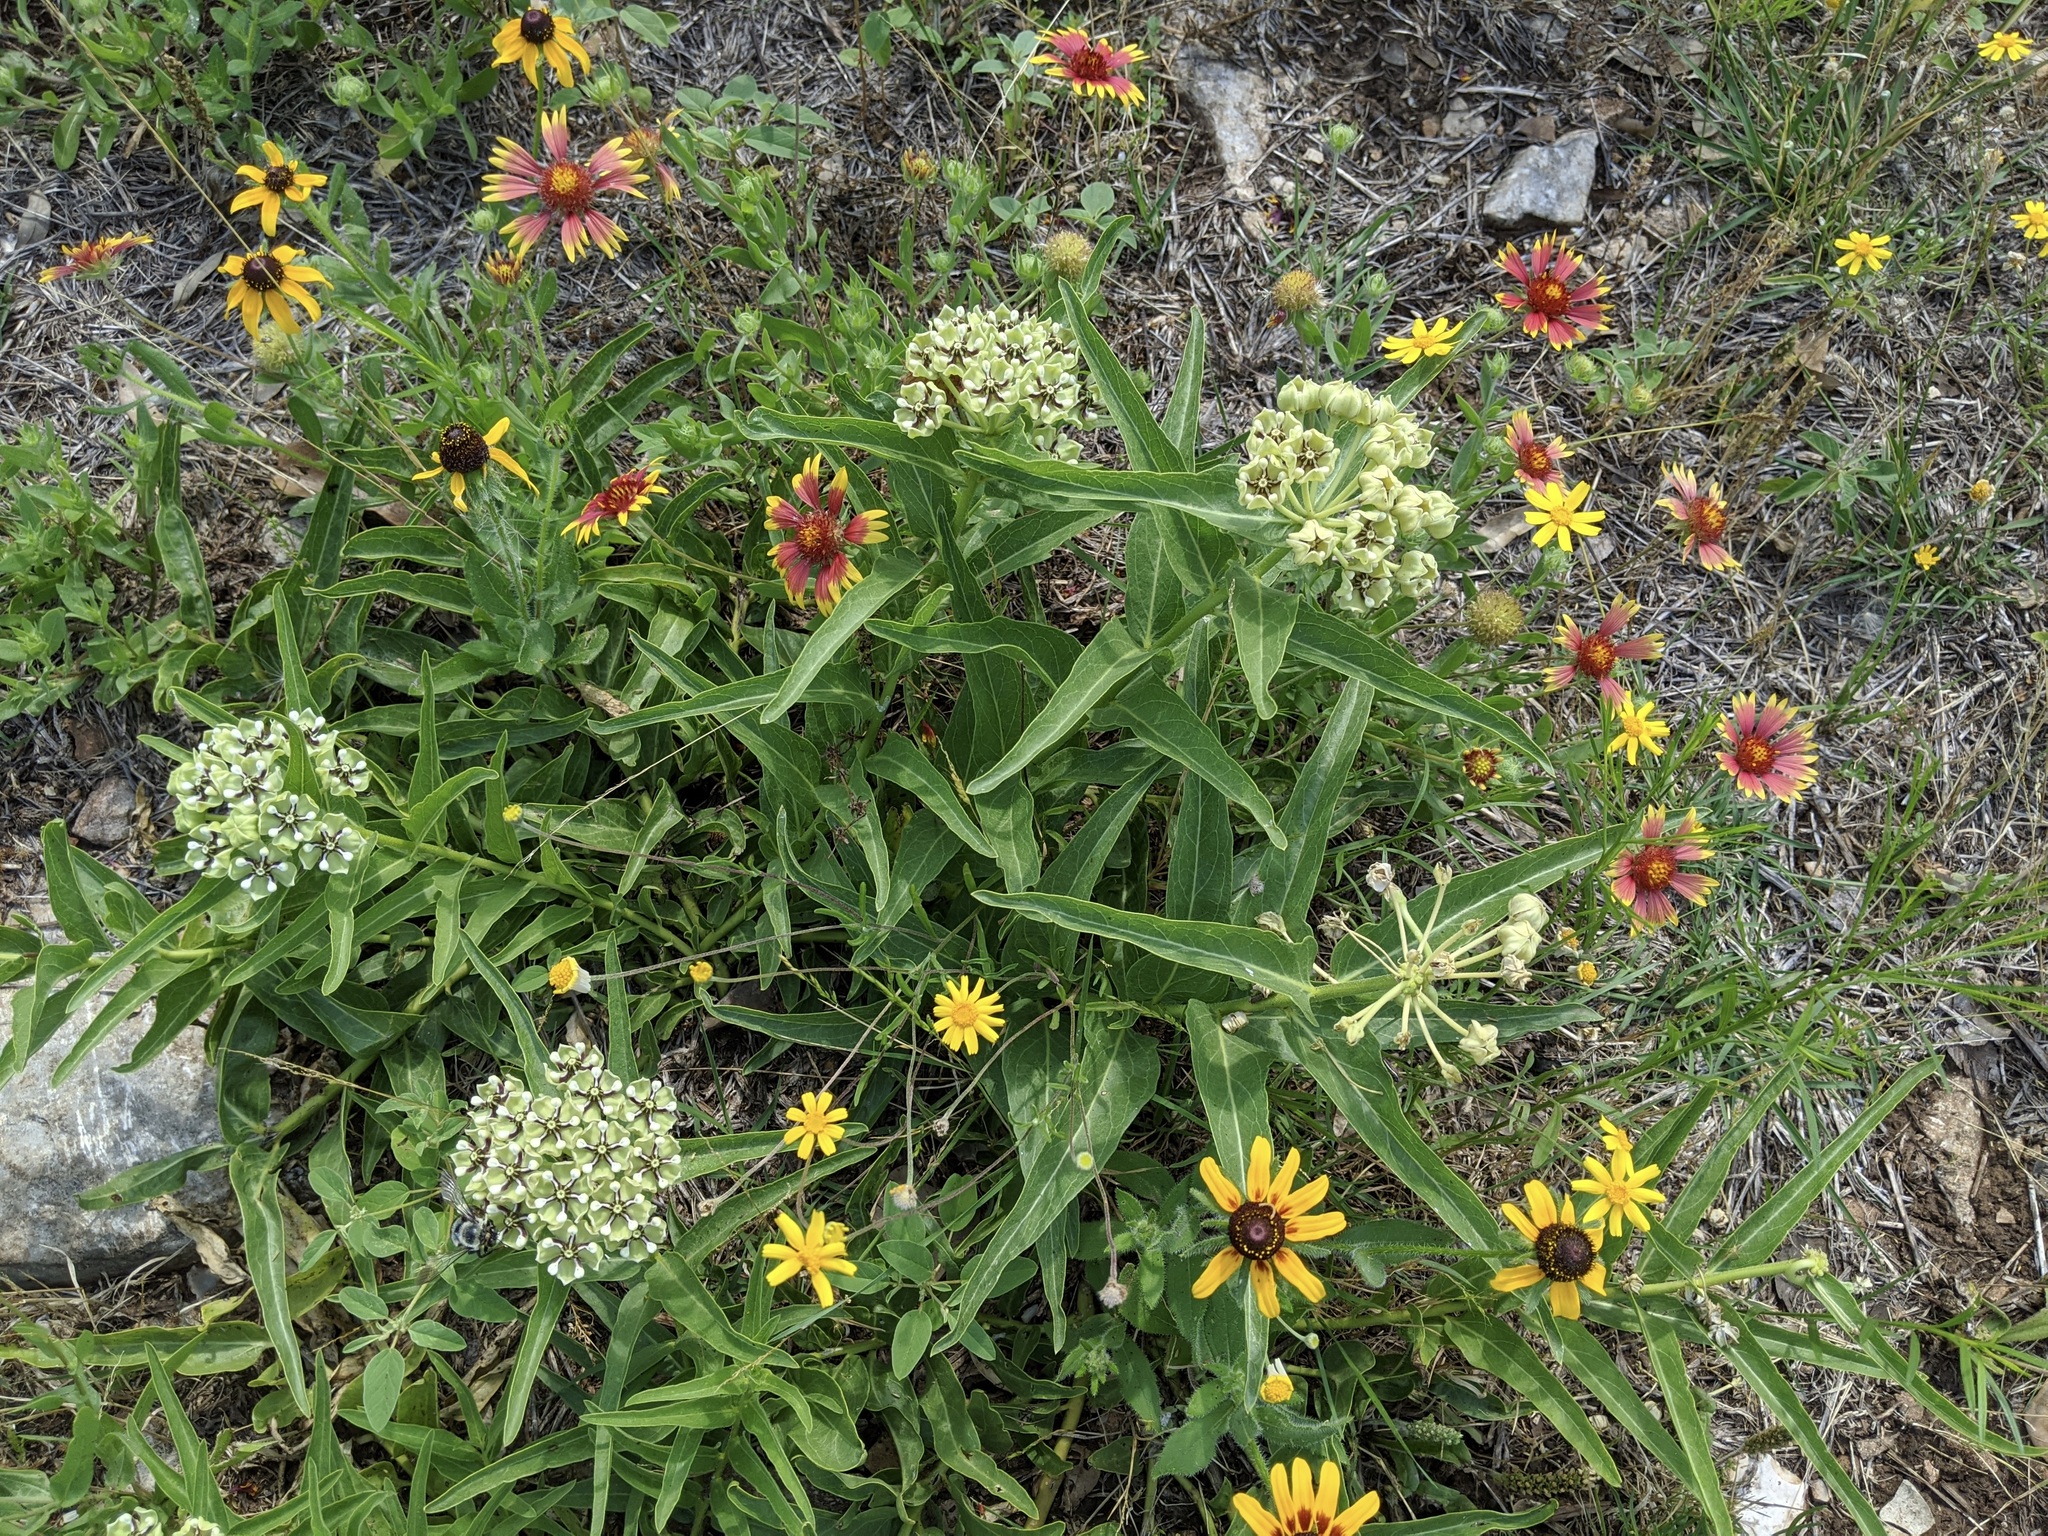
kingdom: Plantae
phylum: Tracheophyta
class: Magnoliopsida
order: Gentianales
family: Apocynaceae
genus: Asclepias
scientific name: Asclepias asperula
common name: Antelope horns
